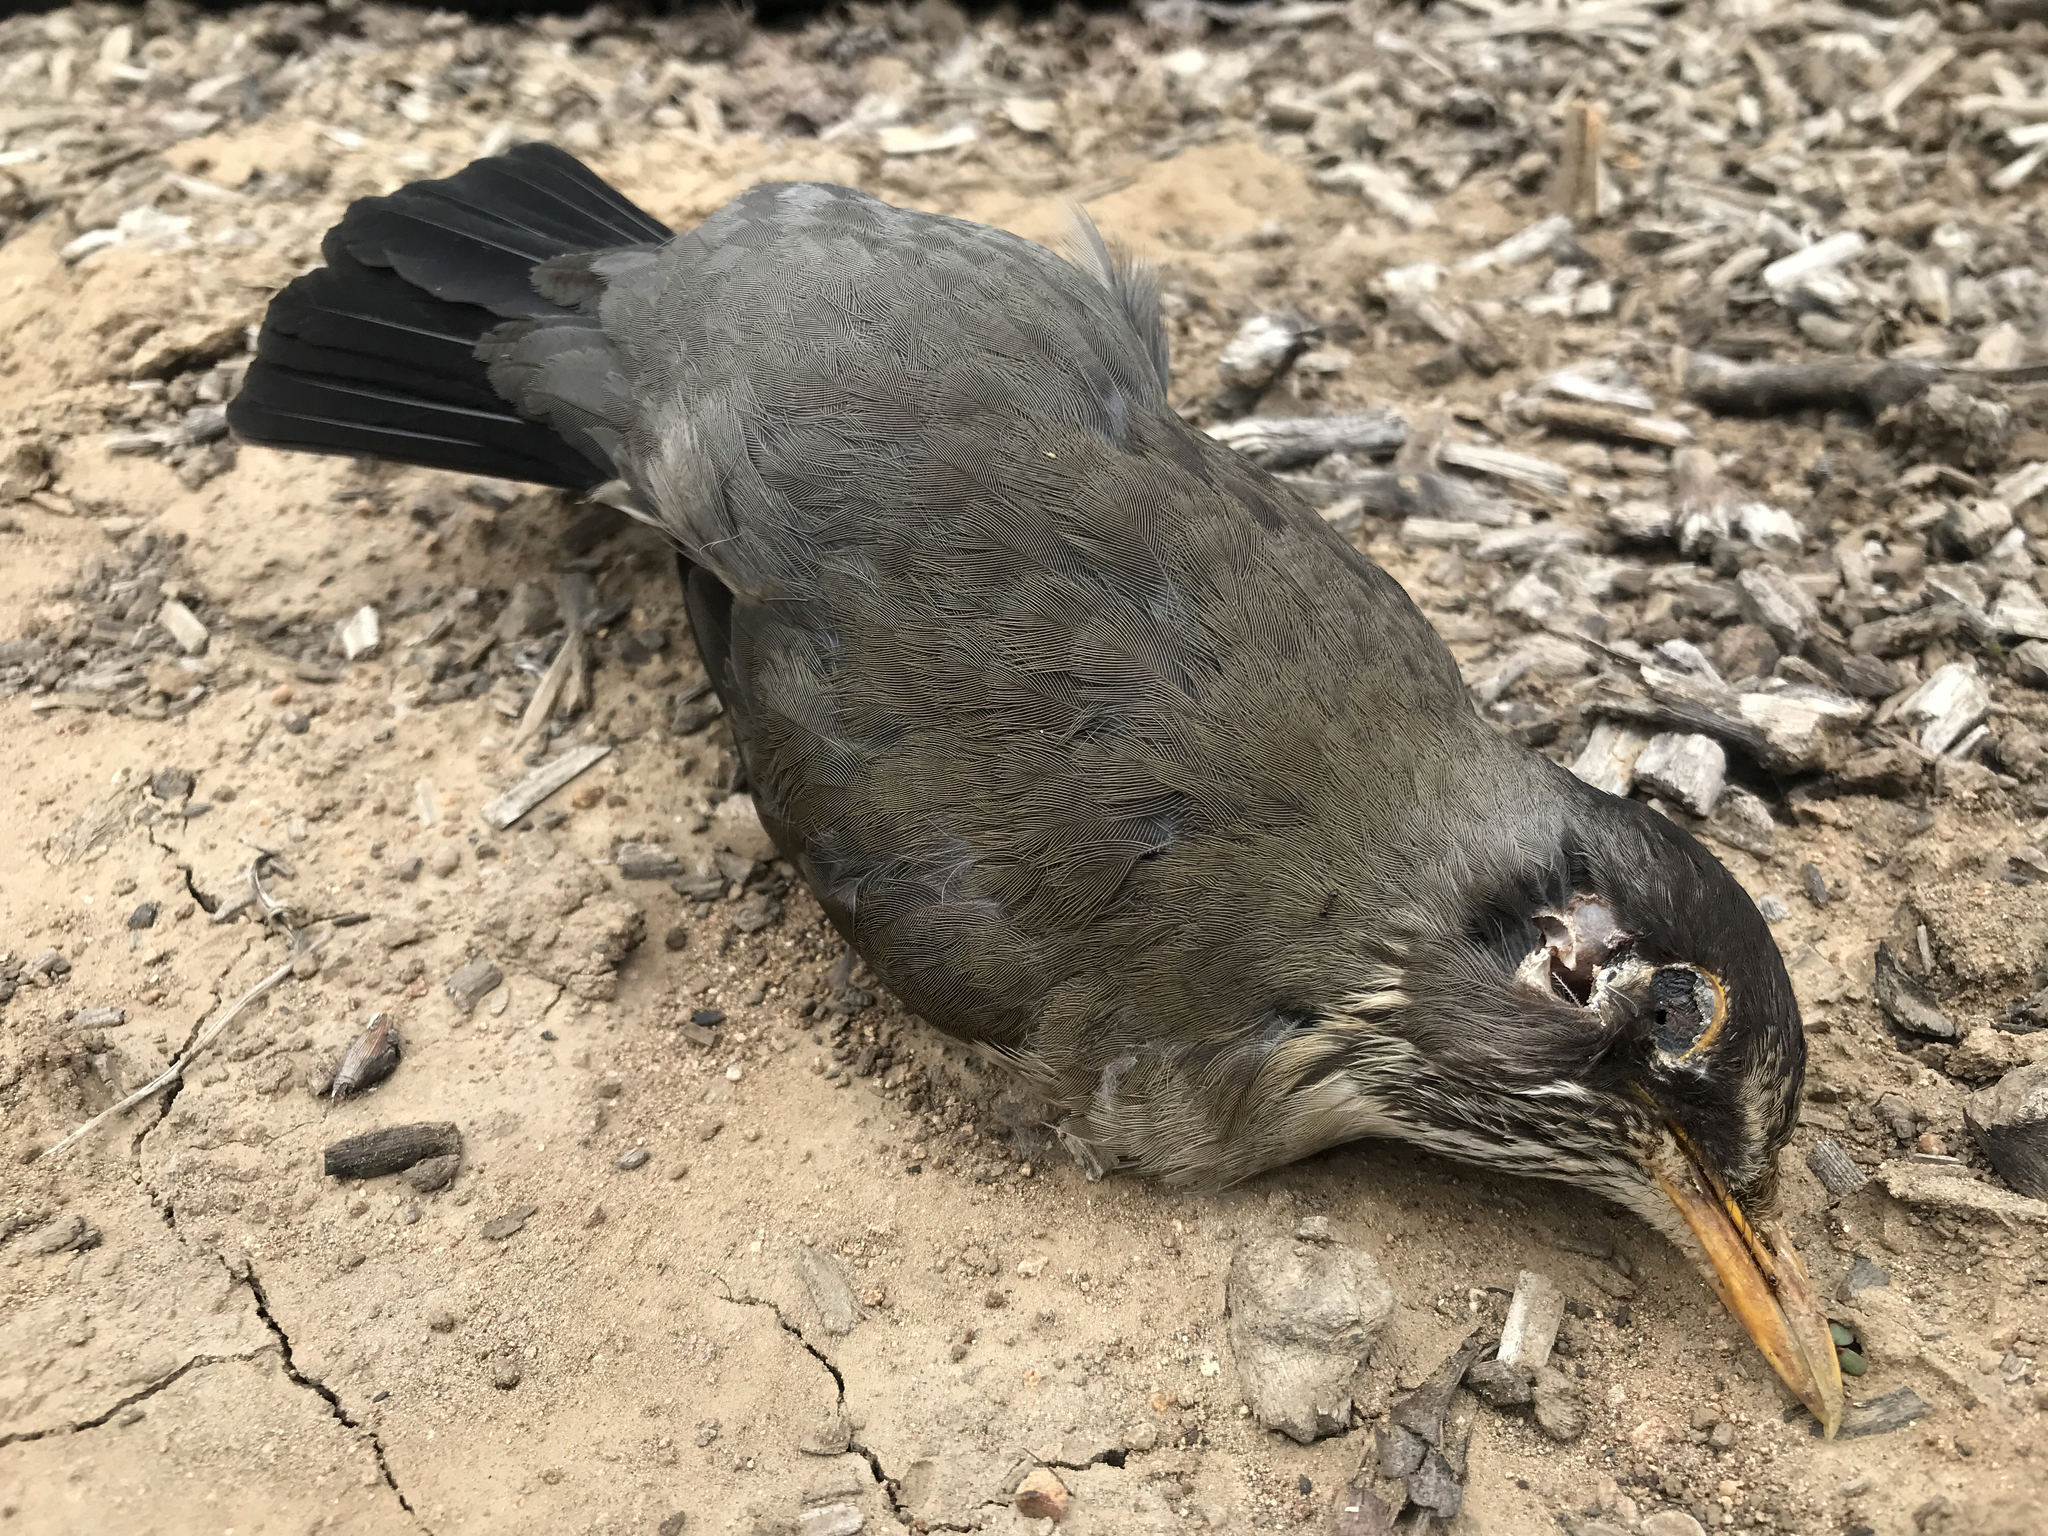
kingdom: Animalia
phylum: Chordata
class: Aves
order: Passeriformes
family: Turdidae
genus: Turdus
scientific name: Turdus falcklandii
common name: Austral thrush
